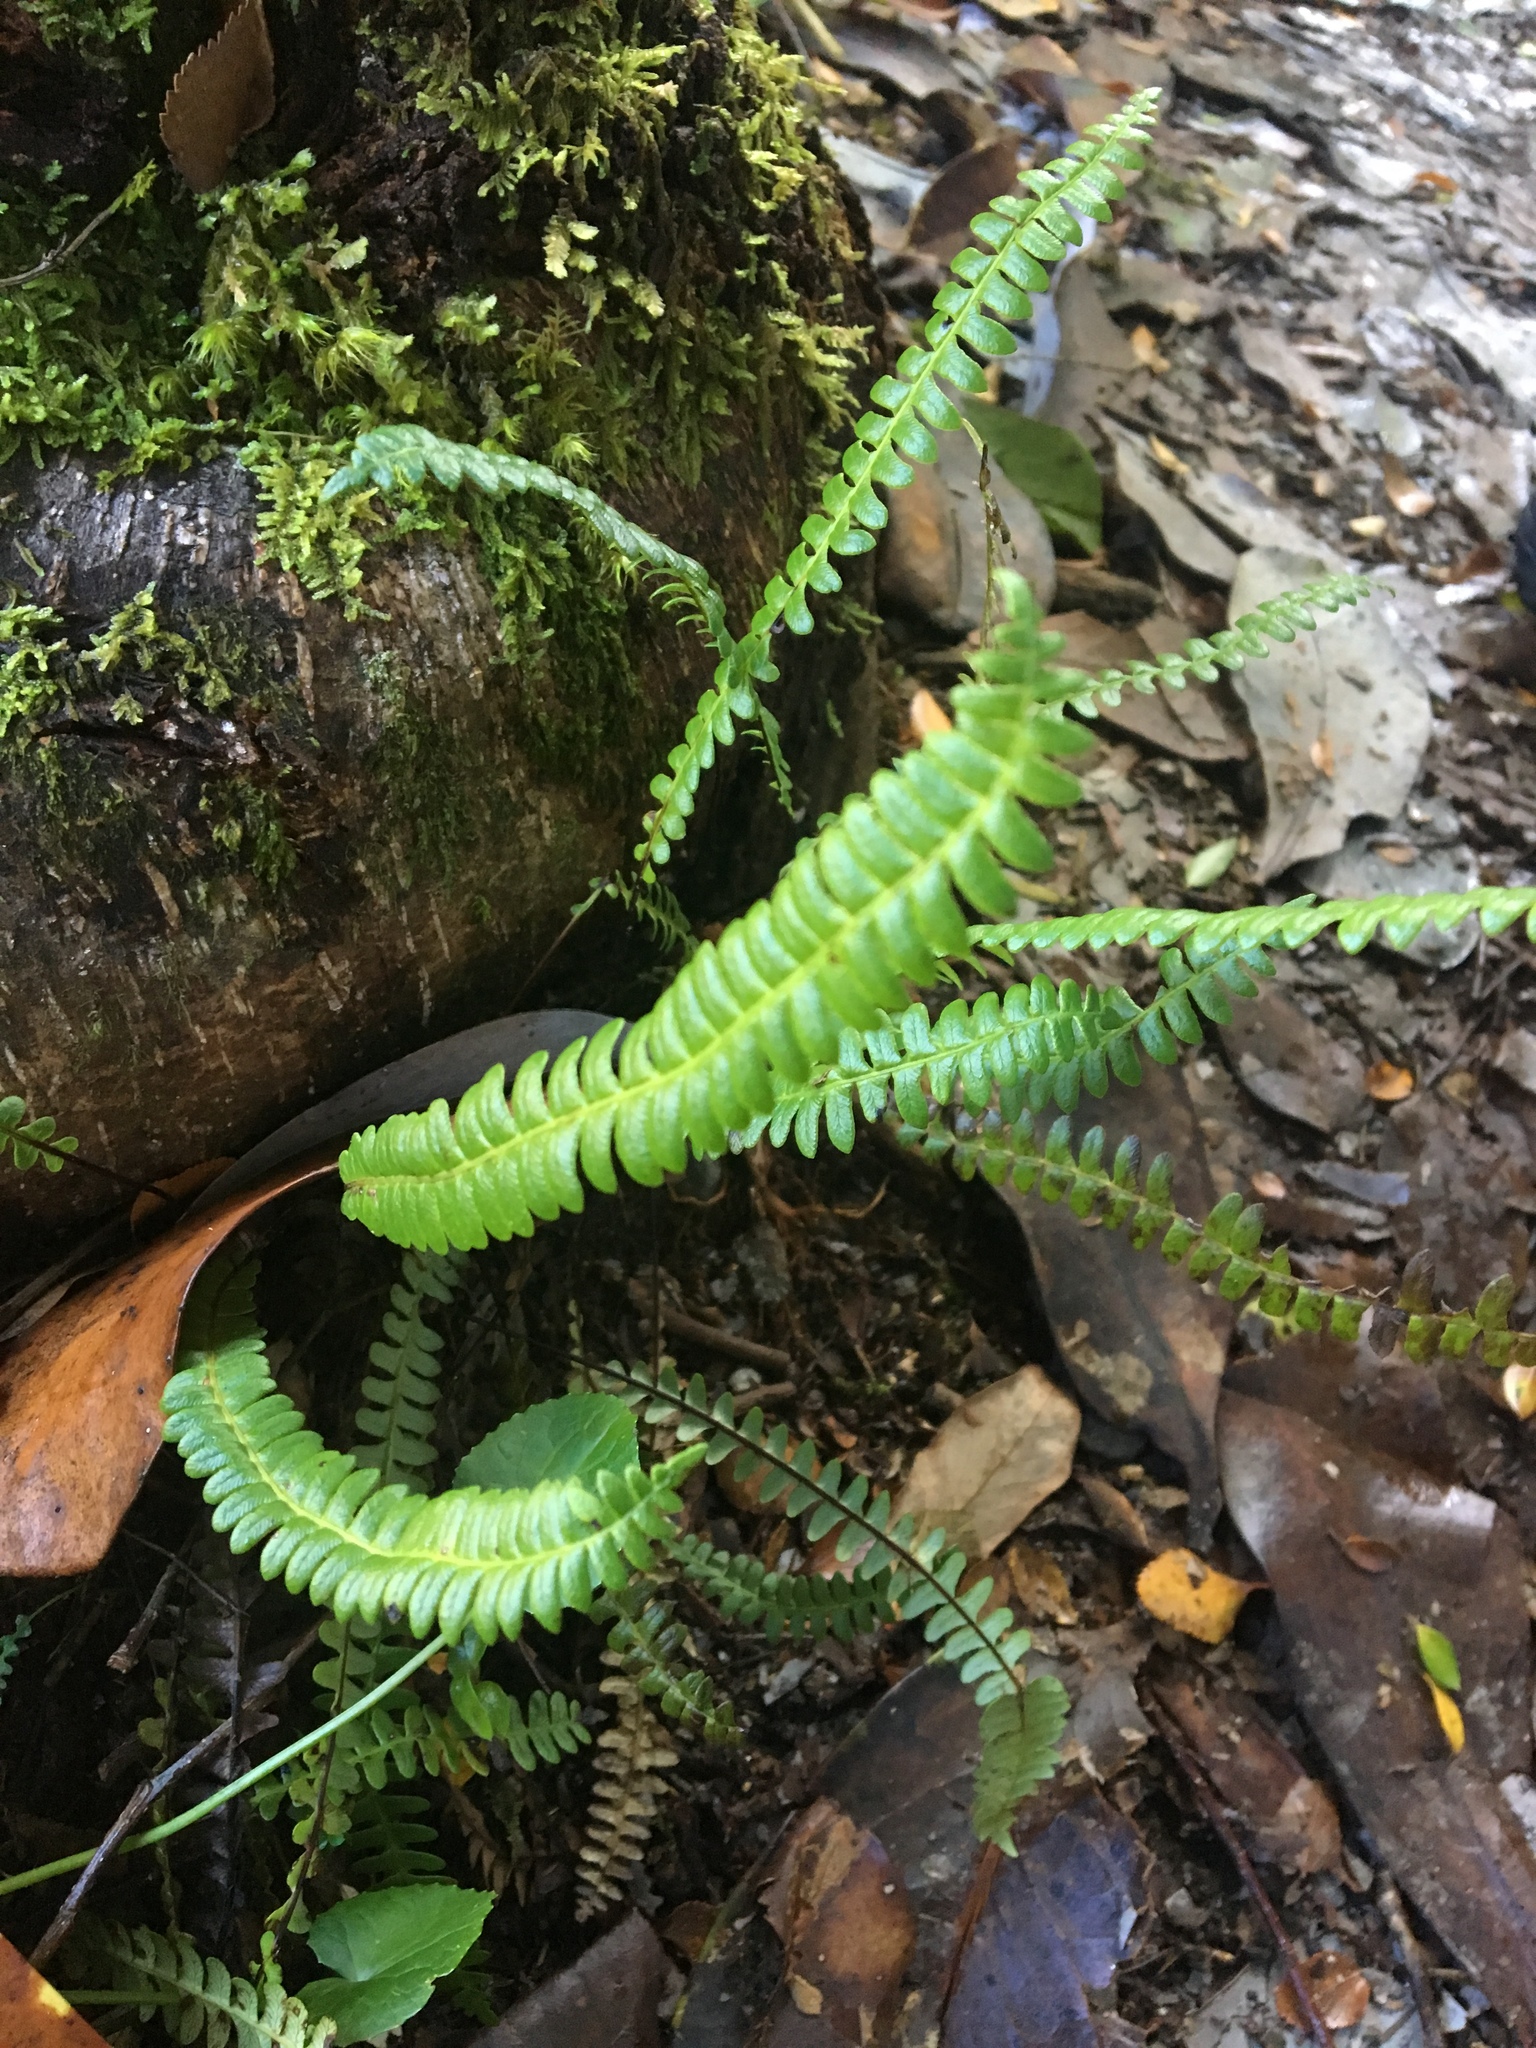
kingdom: Plantae
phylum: Tracheophyta
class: Polypodiopsida
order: Polypodiales
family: Blechnaceae
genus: Austroblechnum
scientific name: Austroblechnum penna-marina
